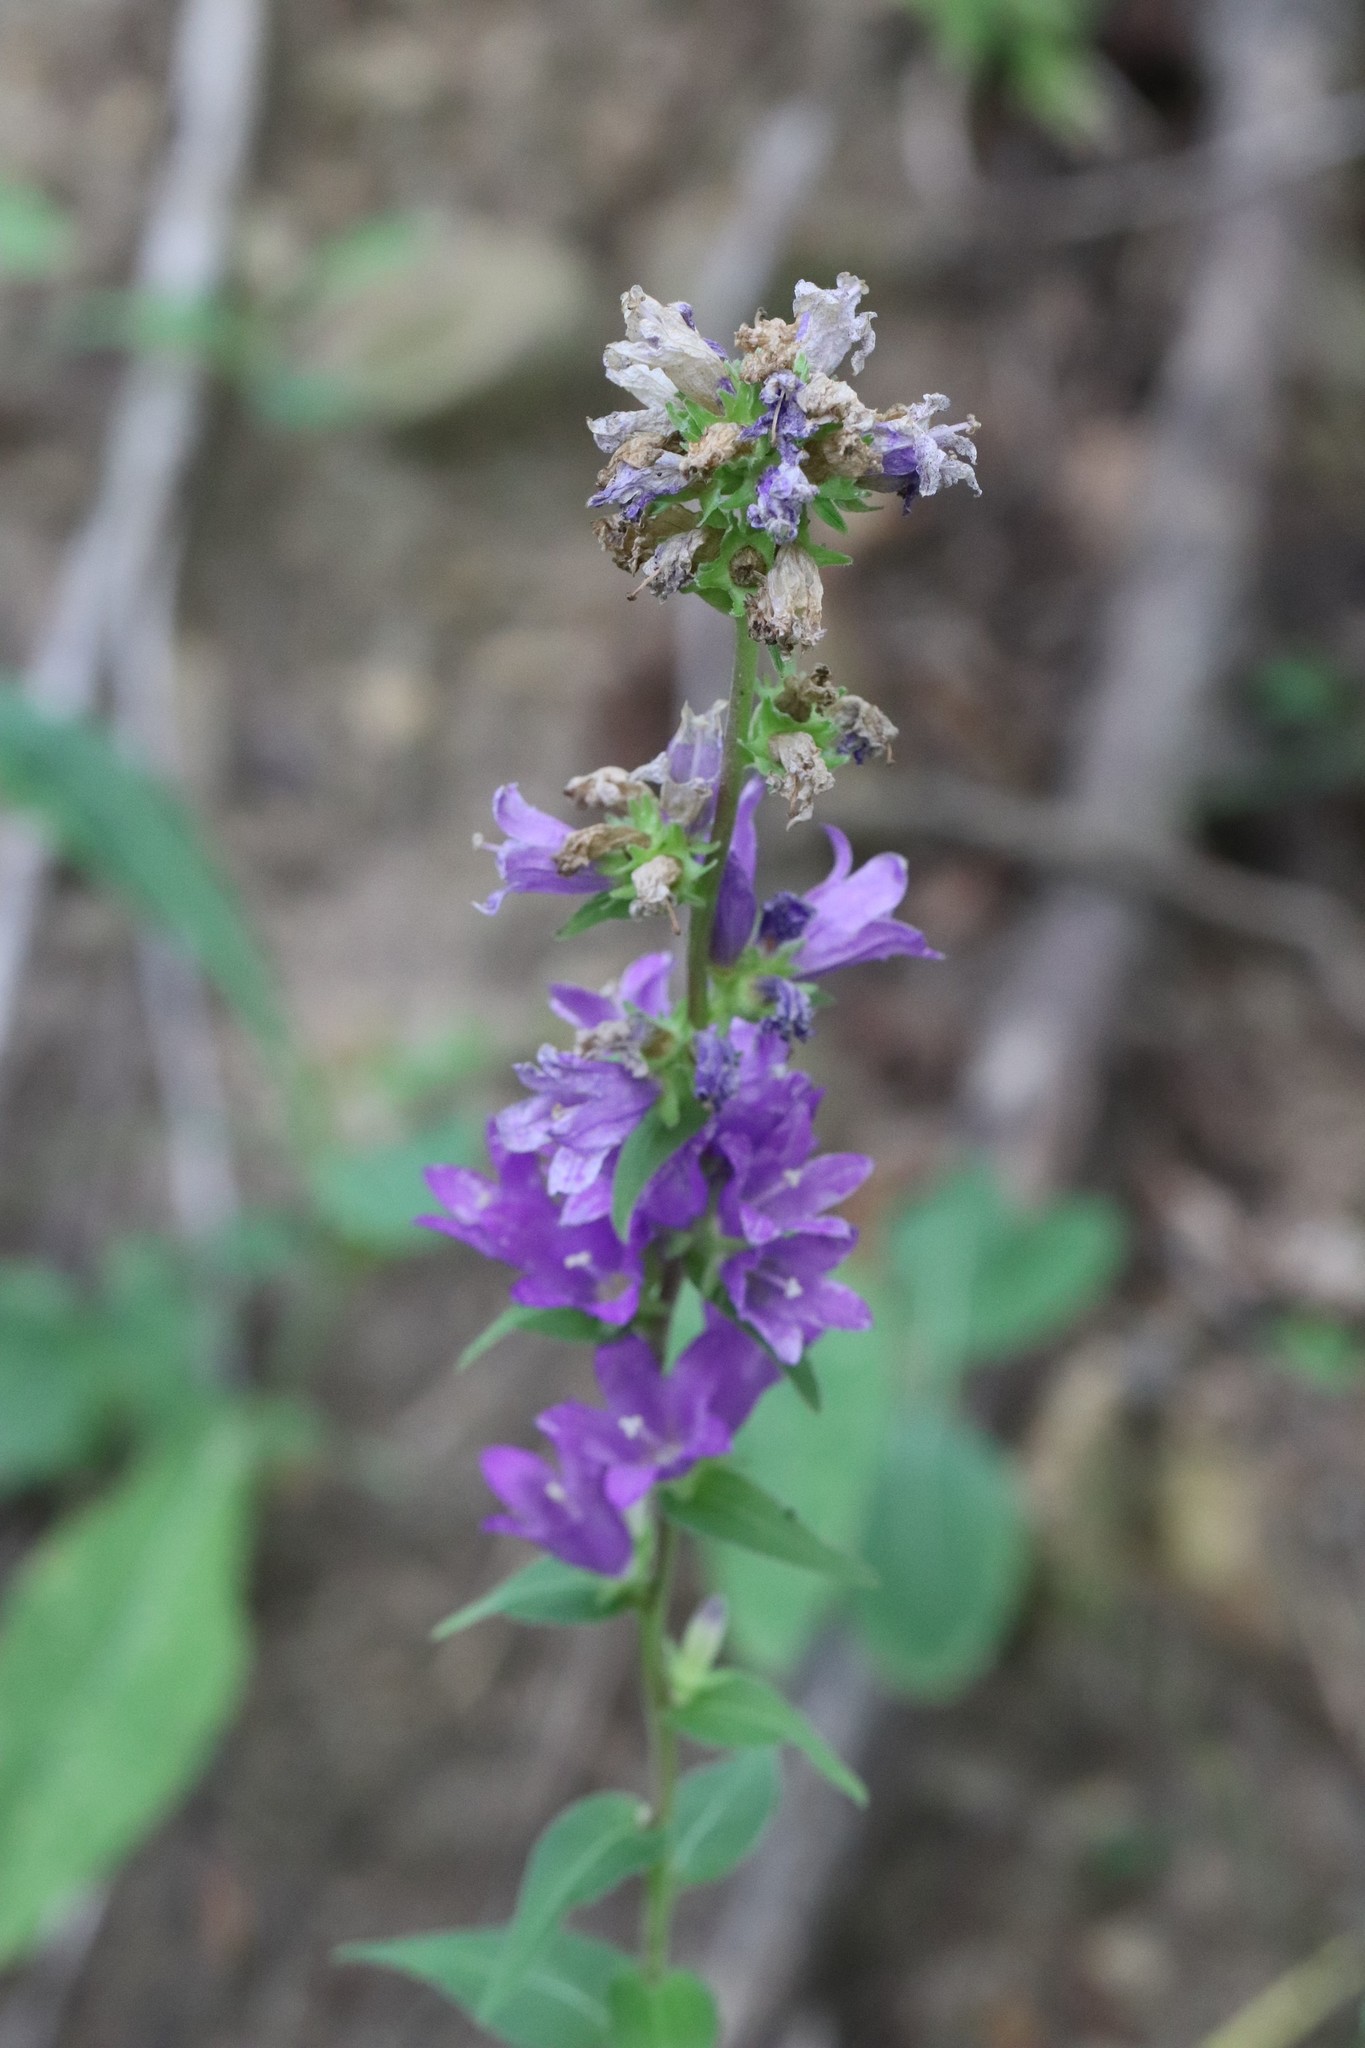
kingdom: Plantae
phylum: Tracheophyta
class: Magnoliopsida
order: Asterales
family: Campanulaceae
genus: Campanula
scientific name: Campanula glomerata
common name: Clustered bellflower
